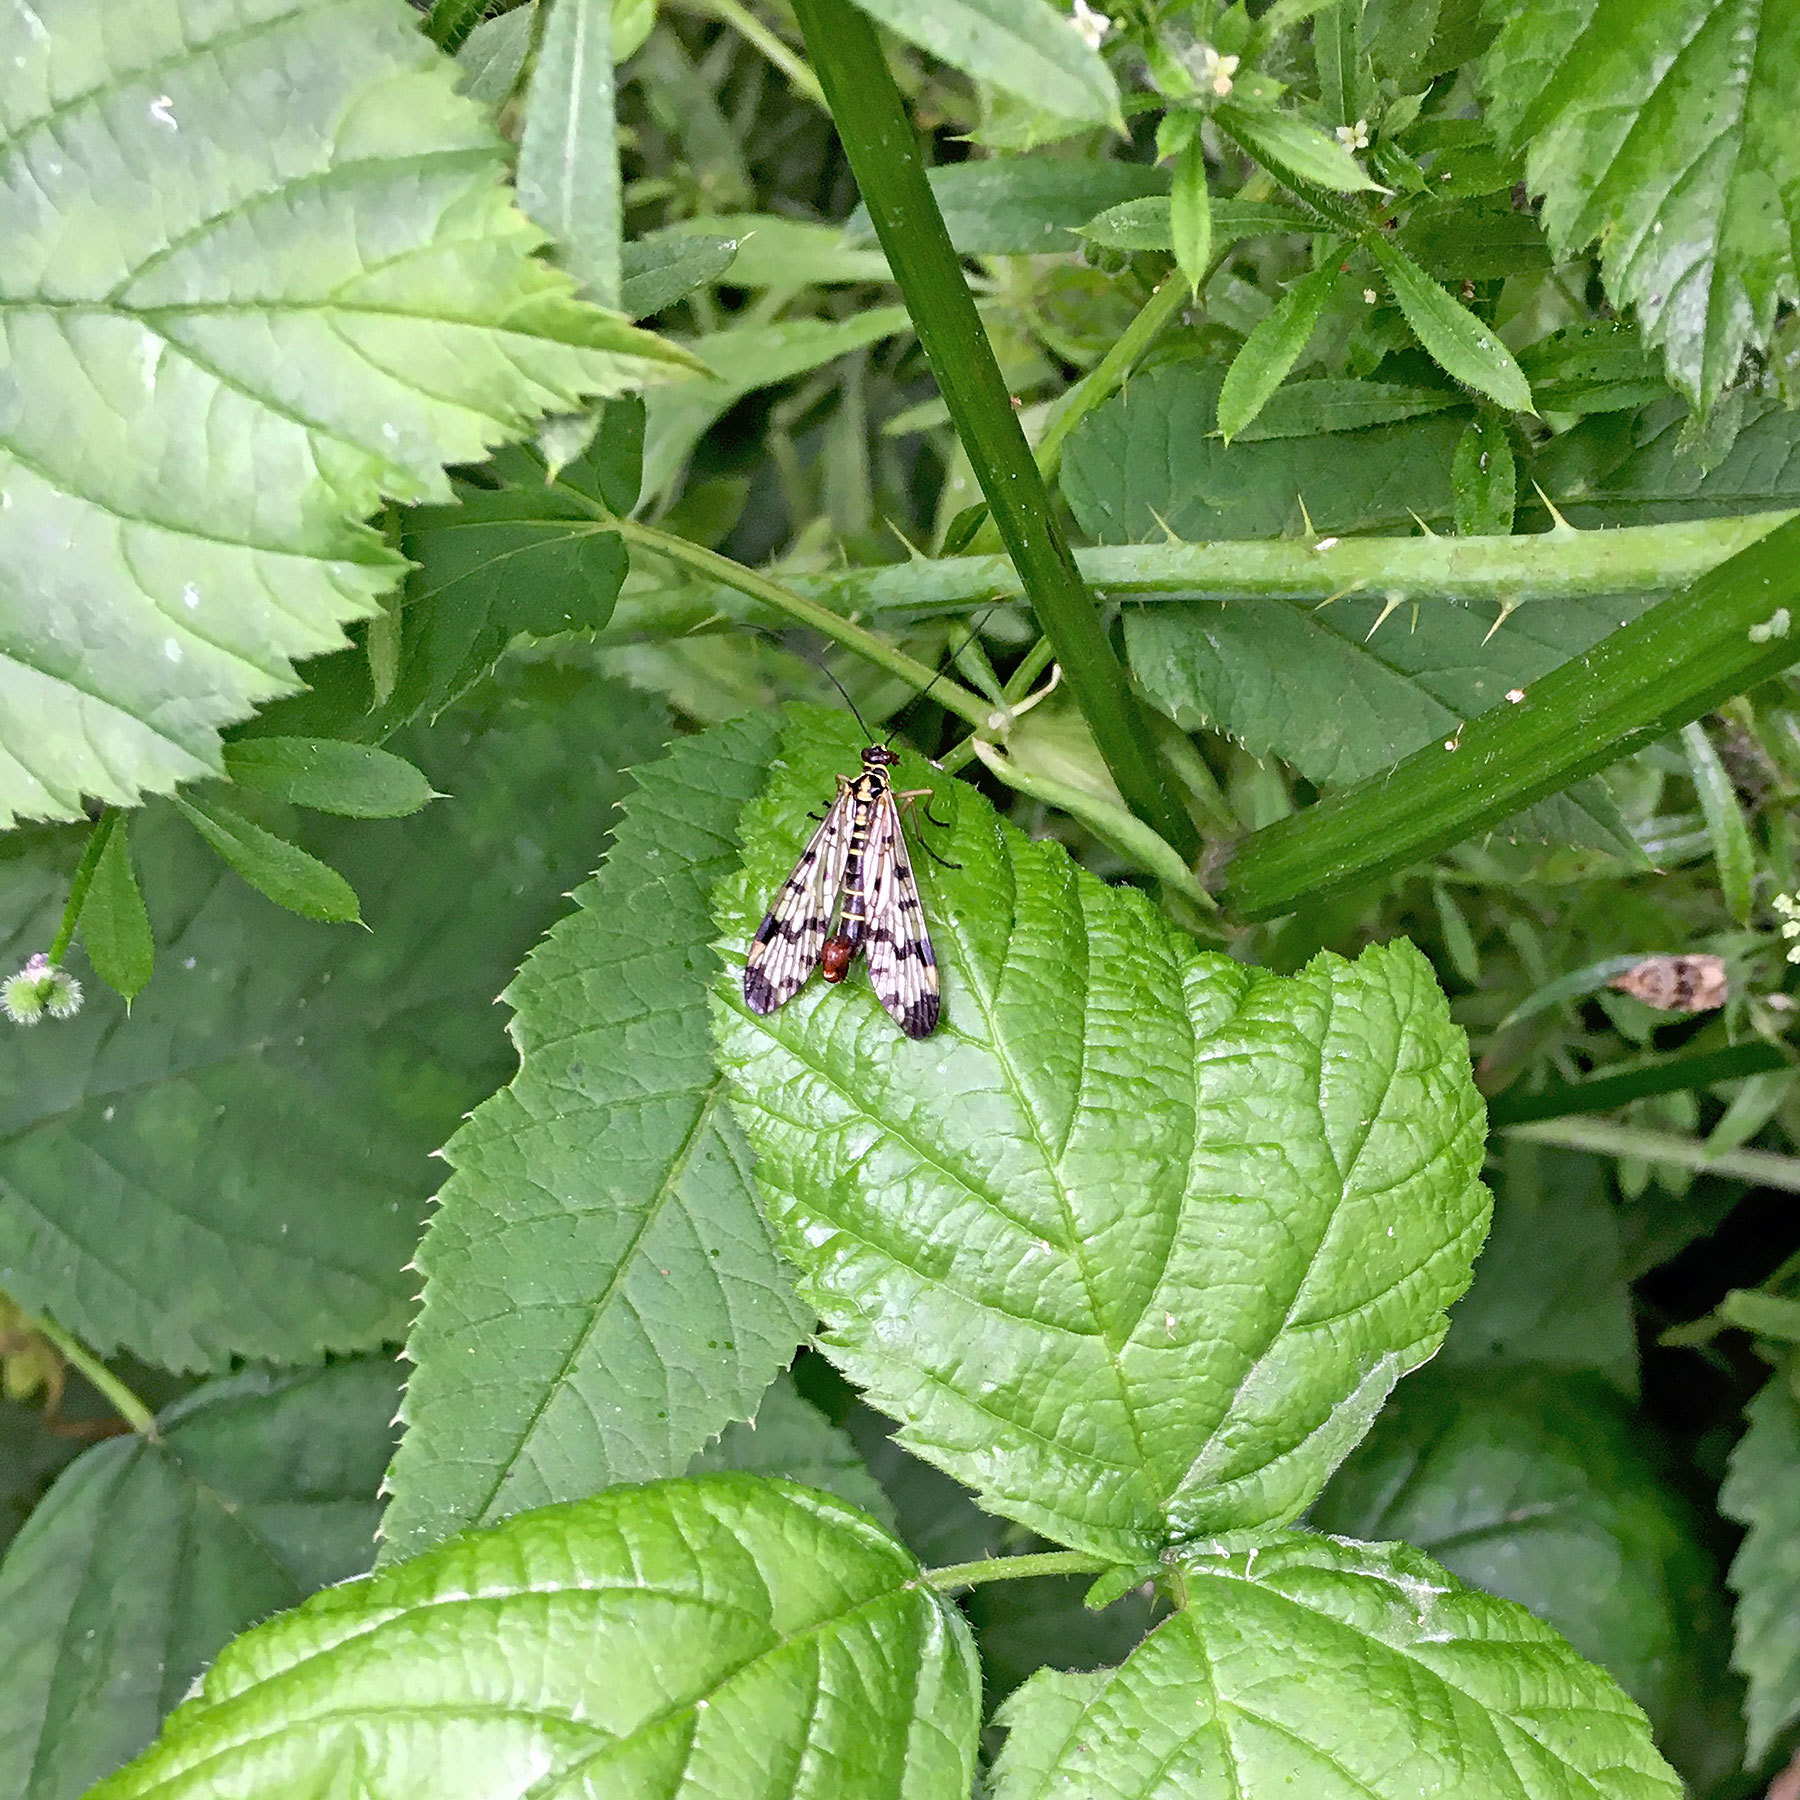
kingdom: Animalia
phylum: Arthropoda
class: Insecta
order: Mecoptera
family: Panorpidae
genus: Panorpa
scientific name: Panorpa communis
